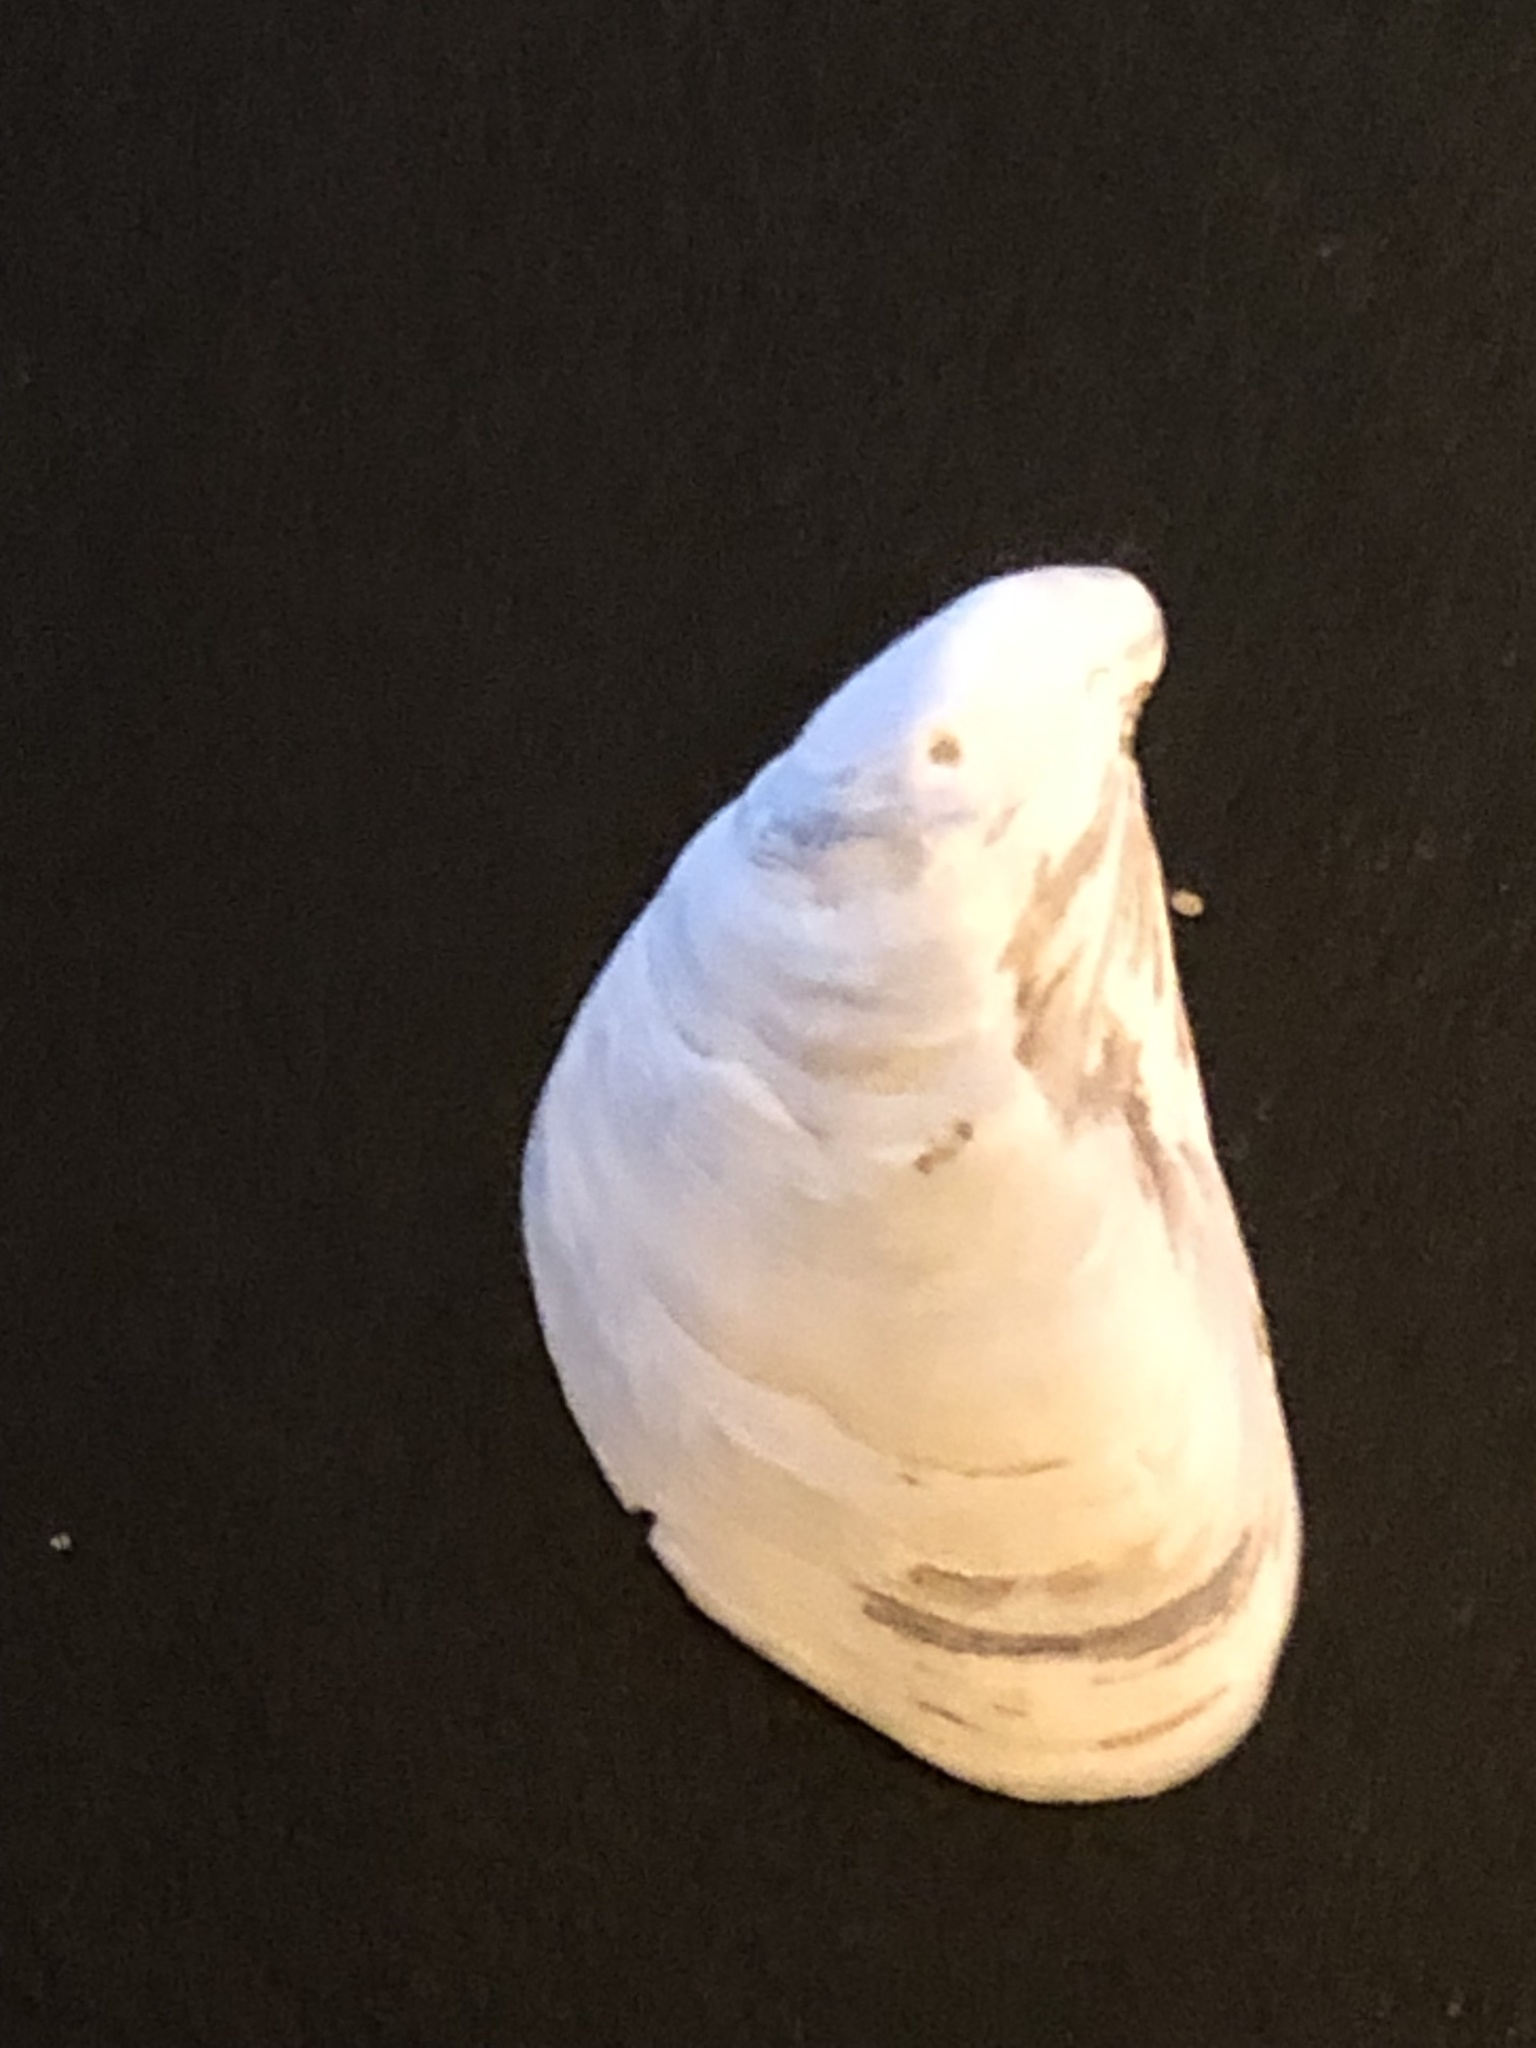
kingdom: Animalia
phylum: Mollusca
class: Bivalvia
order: Myida
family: Dreissenidae
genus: Dreissena
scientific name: Dreissena bugensis
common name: Quagga mussel
